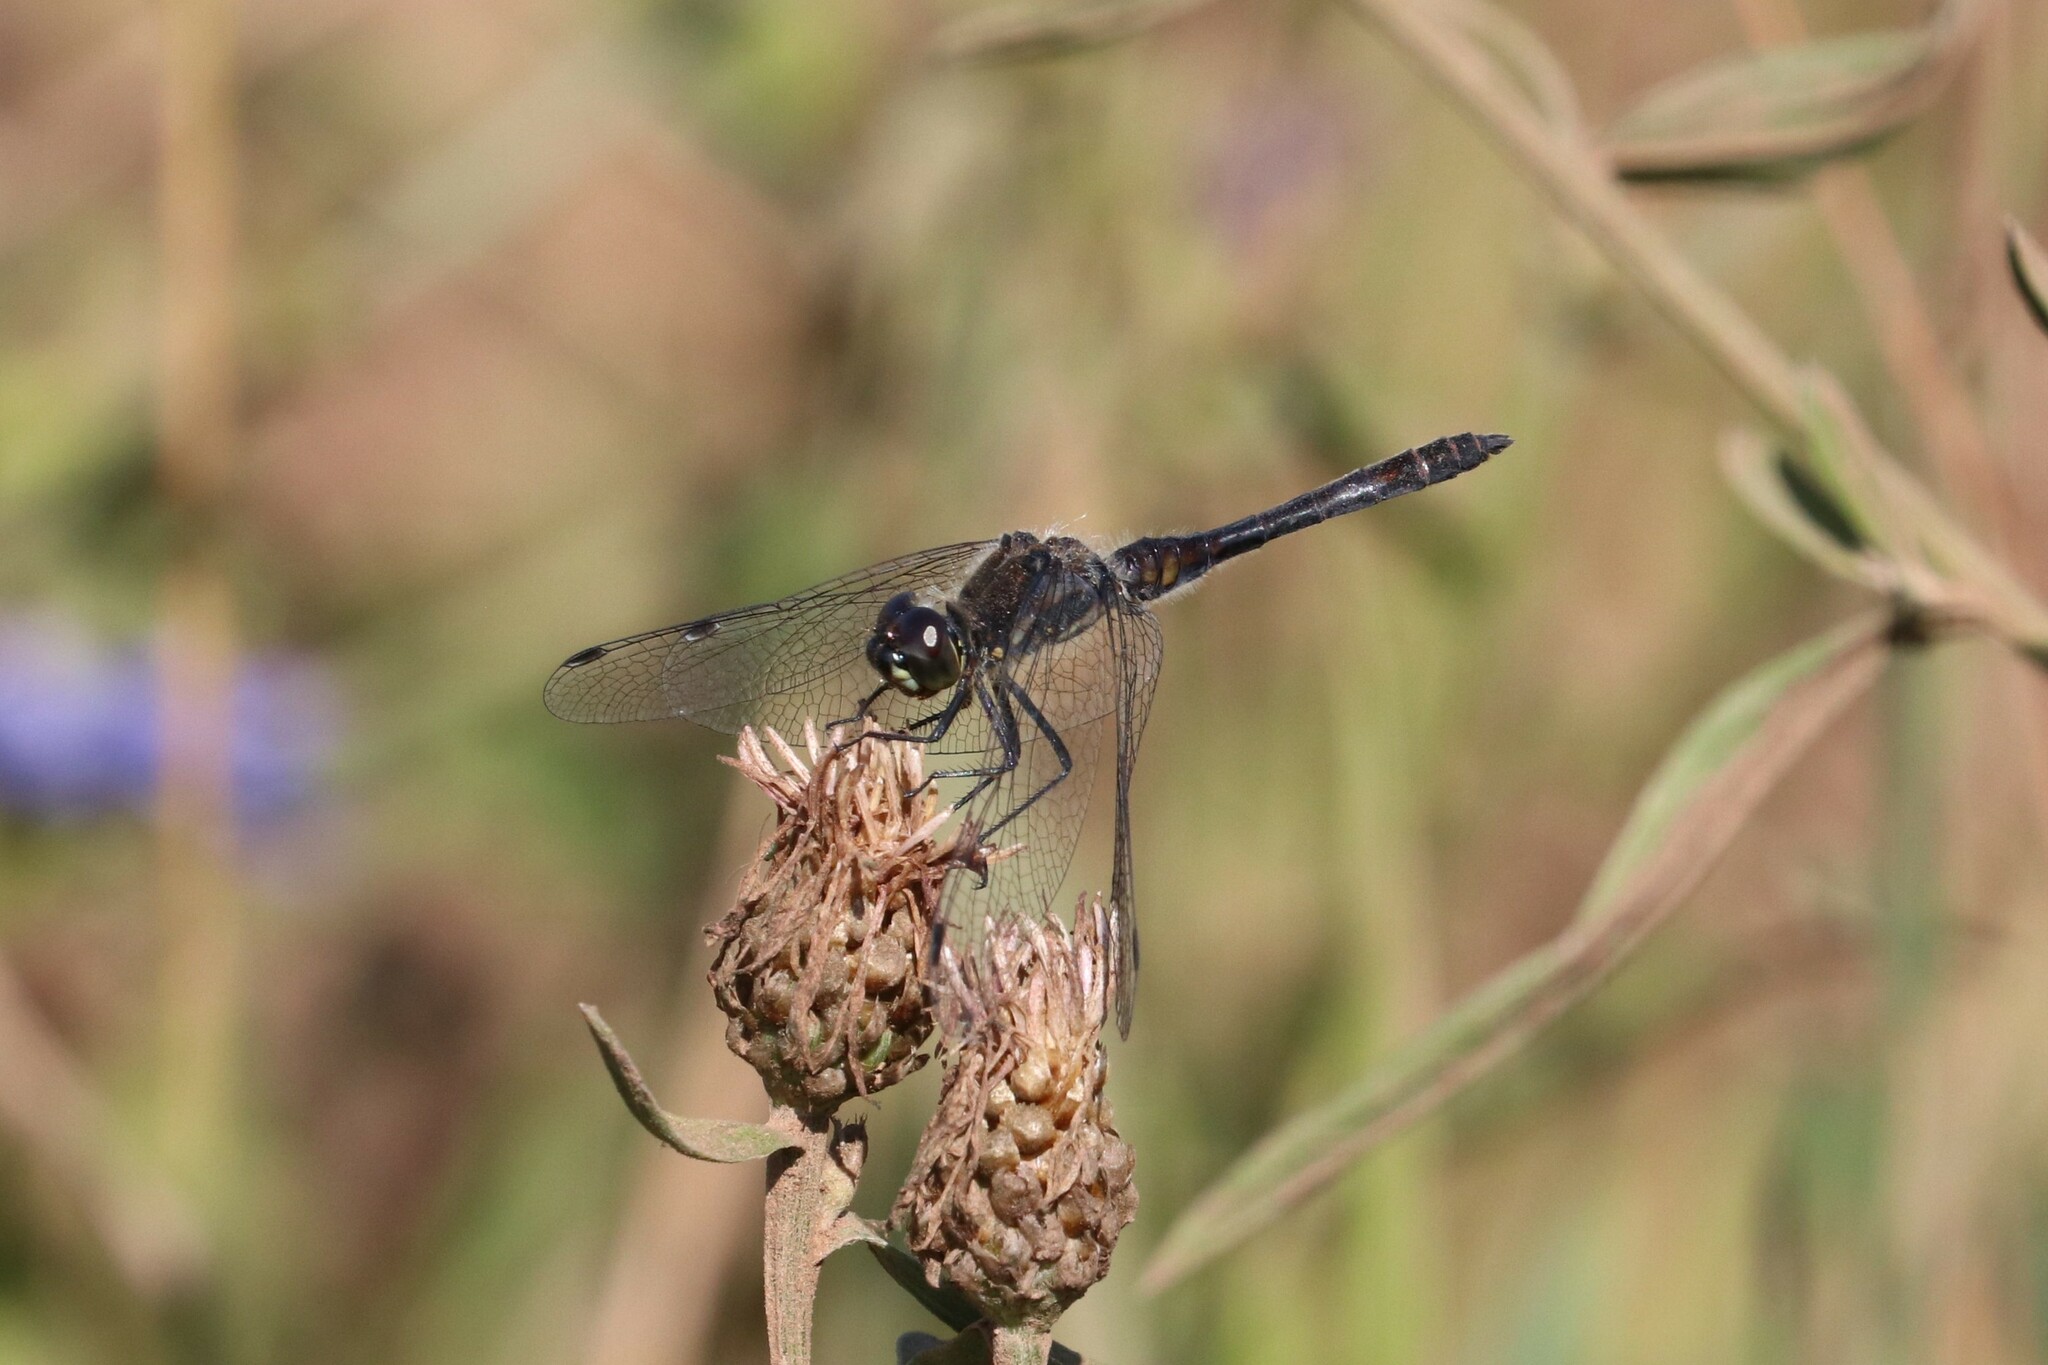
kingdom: Animalia
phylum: Arthropoda
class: Insecta
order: Odonata
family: Libellulidae
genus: Sympetrum
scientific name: Sympetrum danae
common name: Black darter
